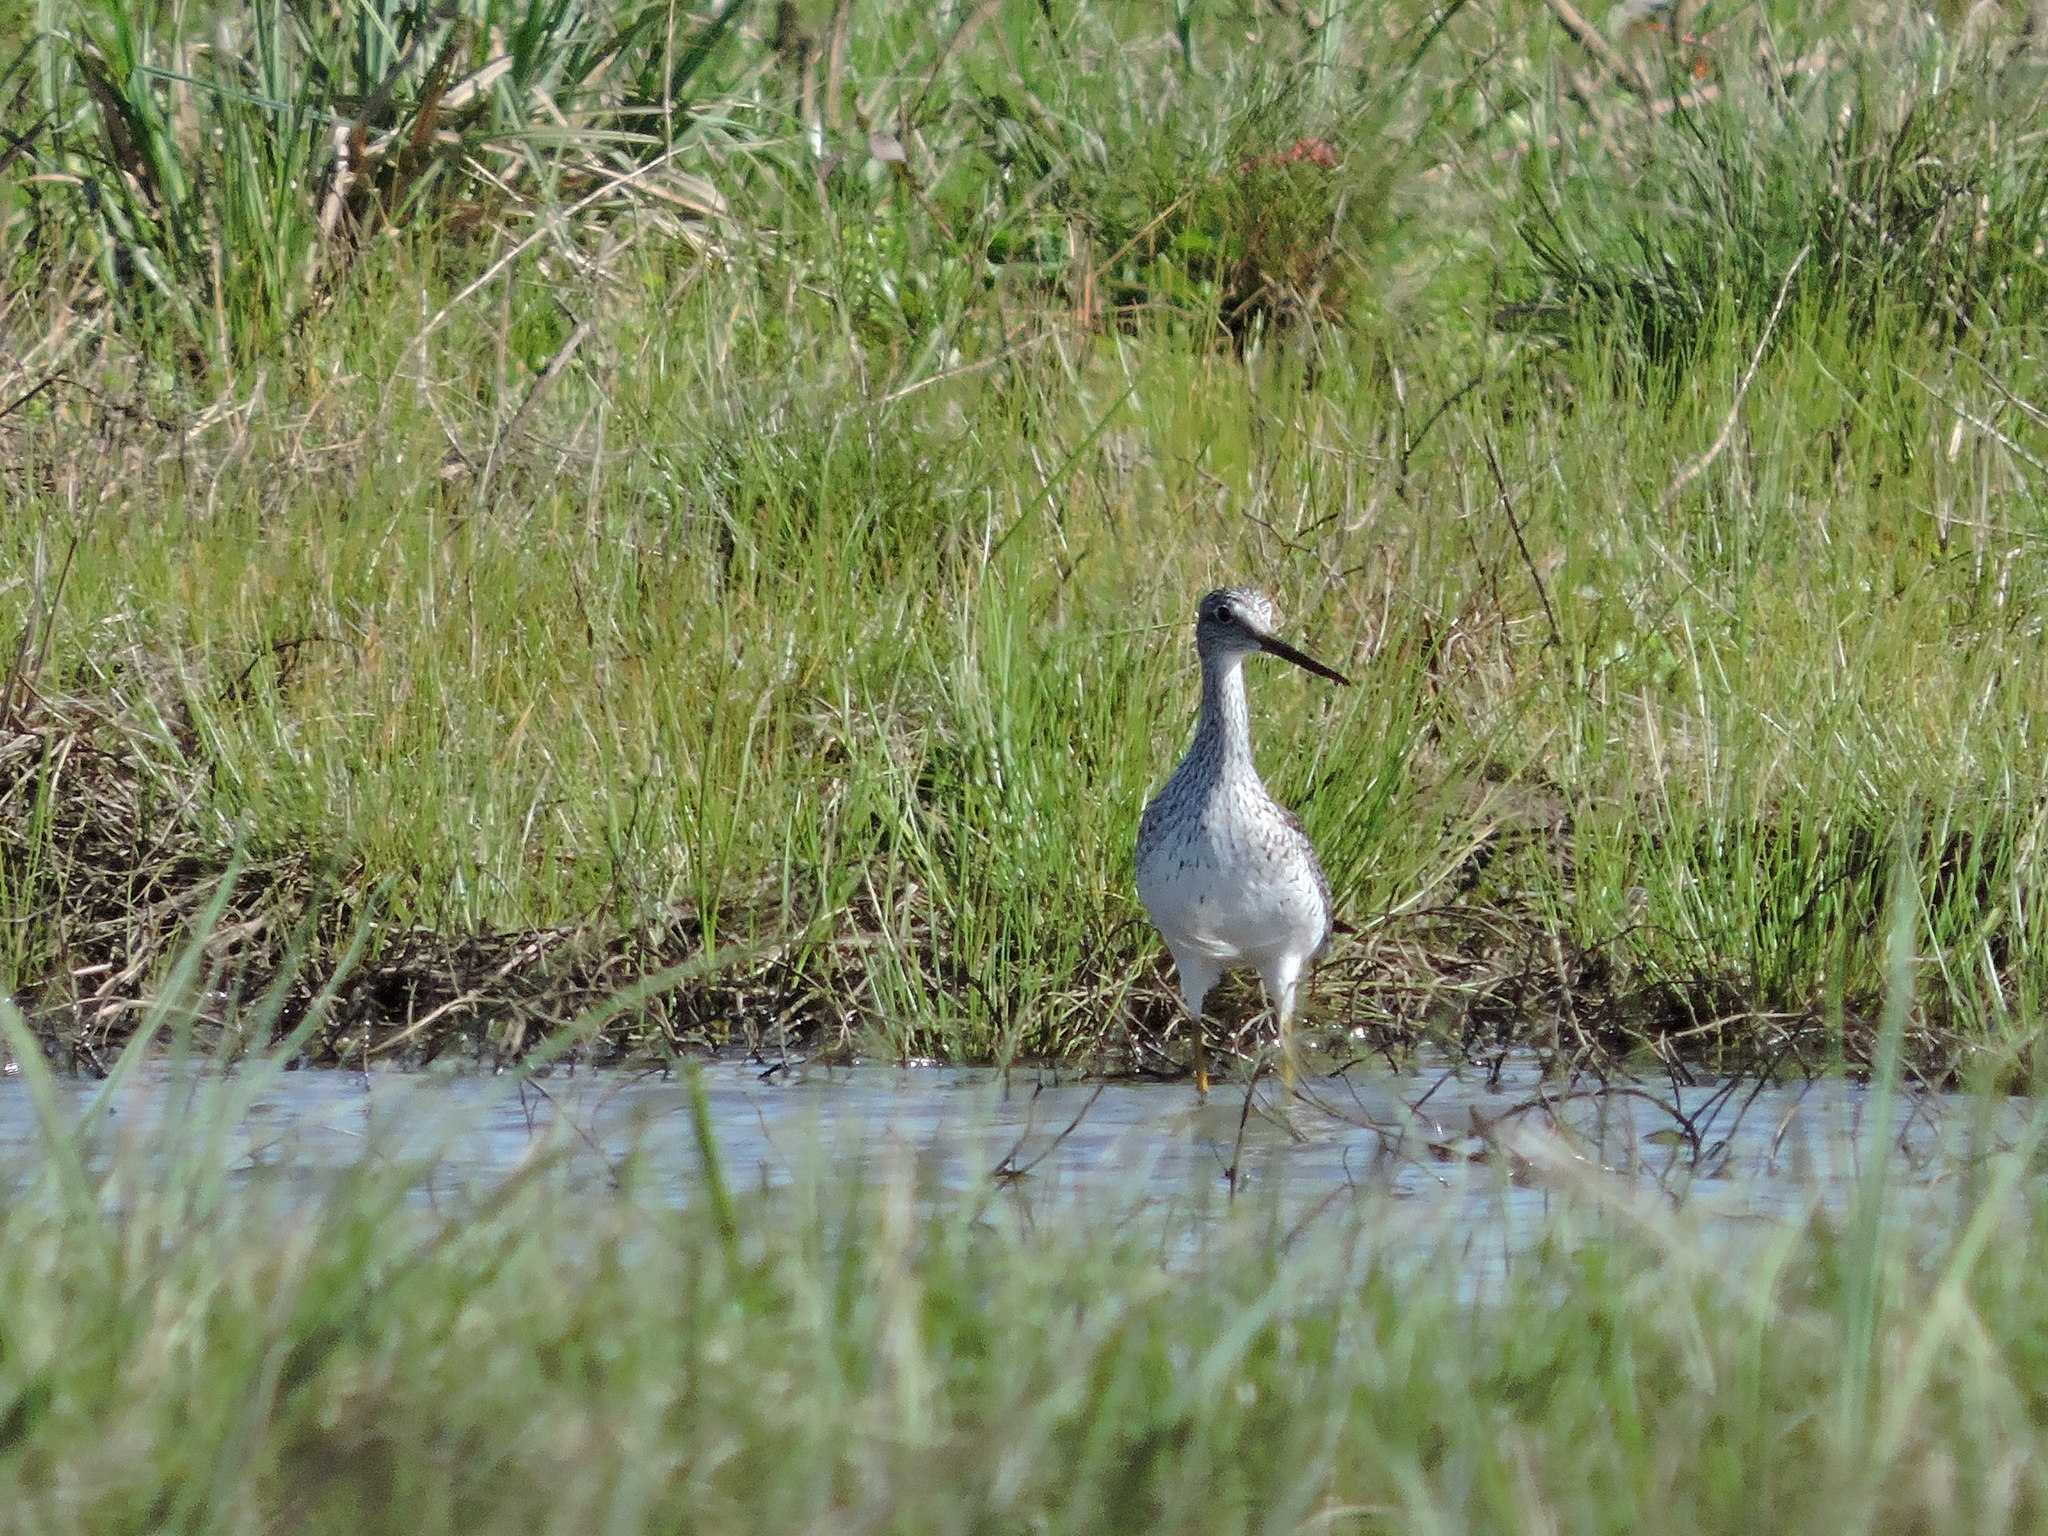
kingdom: Animalia
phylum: Chordata
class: Aves
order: Charadriiformes
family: Scolopacidae
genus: Tringa
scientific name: Tringa melanoleuca
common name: Greater yellowlegs
